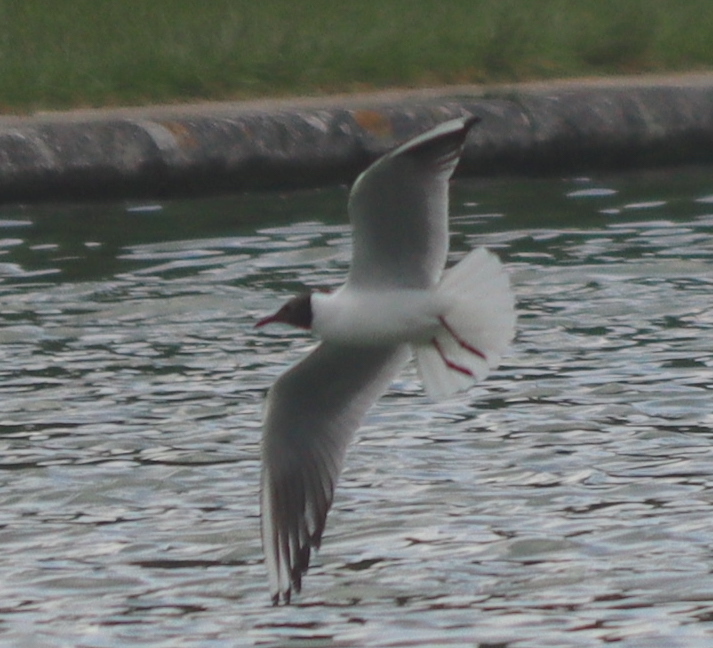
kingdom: Animalia
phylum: Chordata
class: Aves
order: Charadriiformes
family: Laridae
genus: Chroicocephalus
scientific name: Chroicocephalus ridibundus
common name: Black-headed gull
